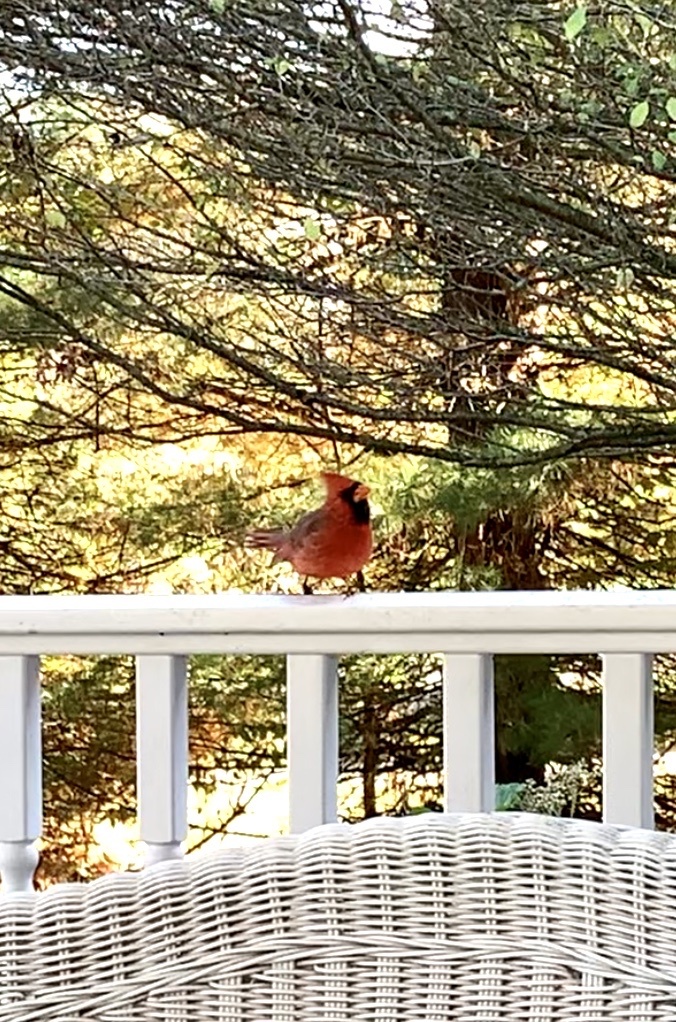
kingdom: Animalia
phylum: Chordata
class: Aves
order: Passeriformes
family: Cardinalidae
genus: Cardinalis
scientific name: Cardinalis cardinalis
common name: Northern cardinal
